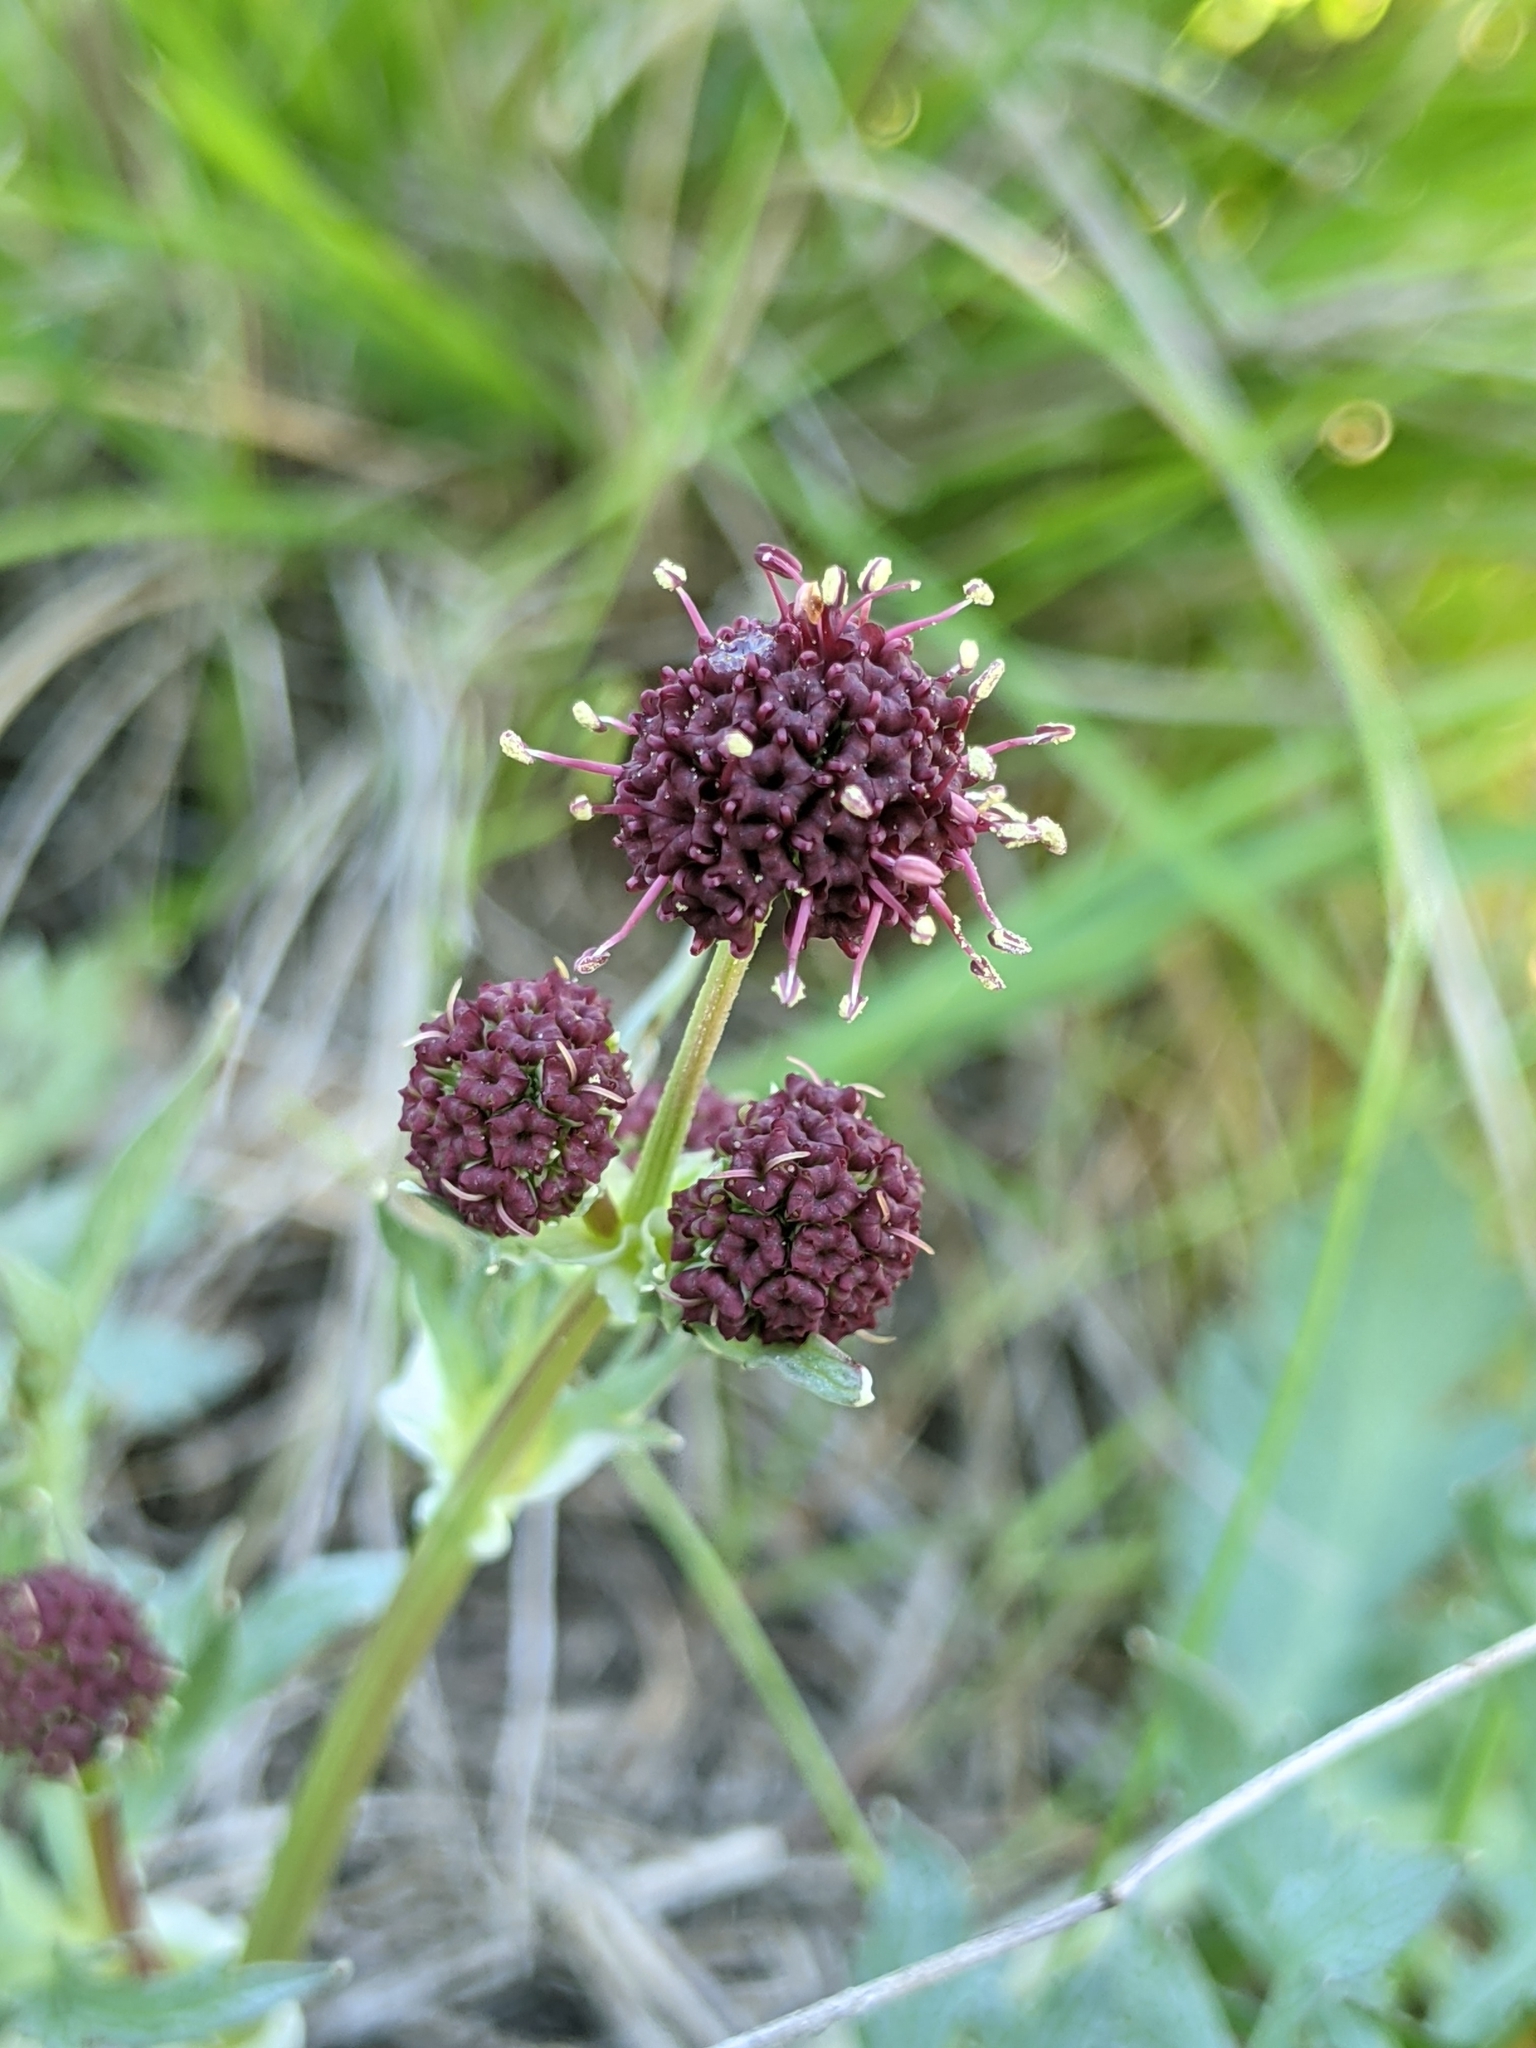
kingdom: Plantae
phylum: Tracheophyta
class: Magnoliopsida
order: Apiales
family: Apiaceae
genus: Sanicula
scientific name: Sanicula bipinnatifida
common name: Shoe-buttons
